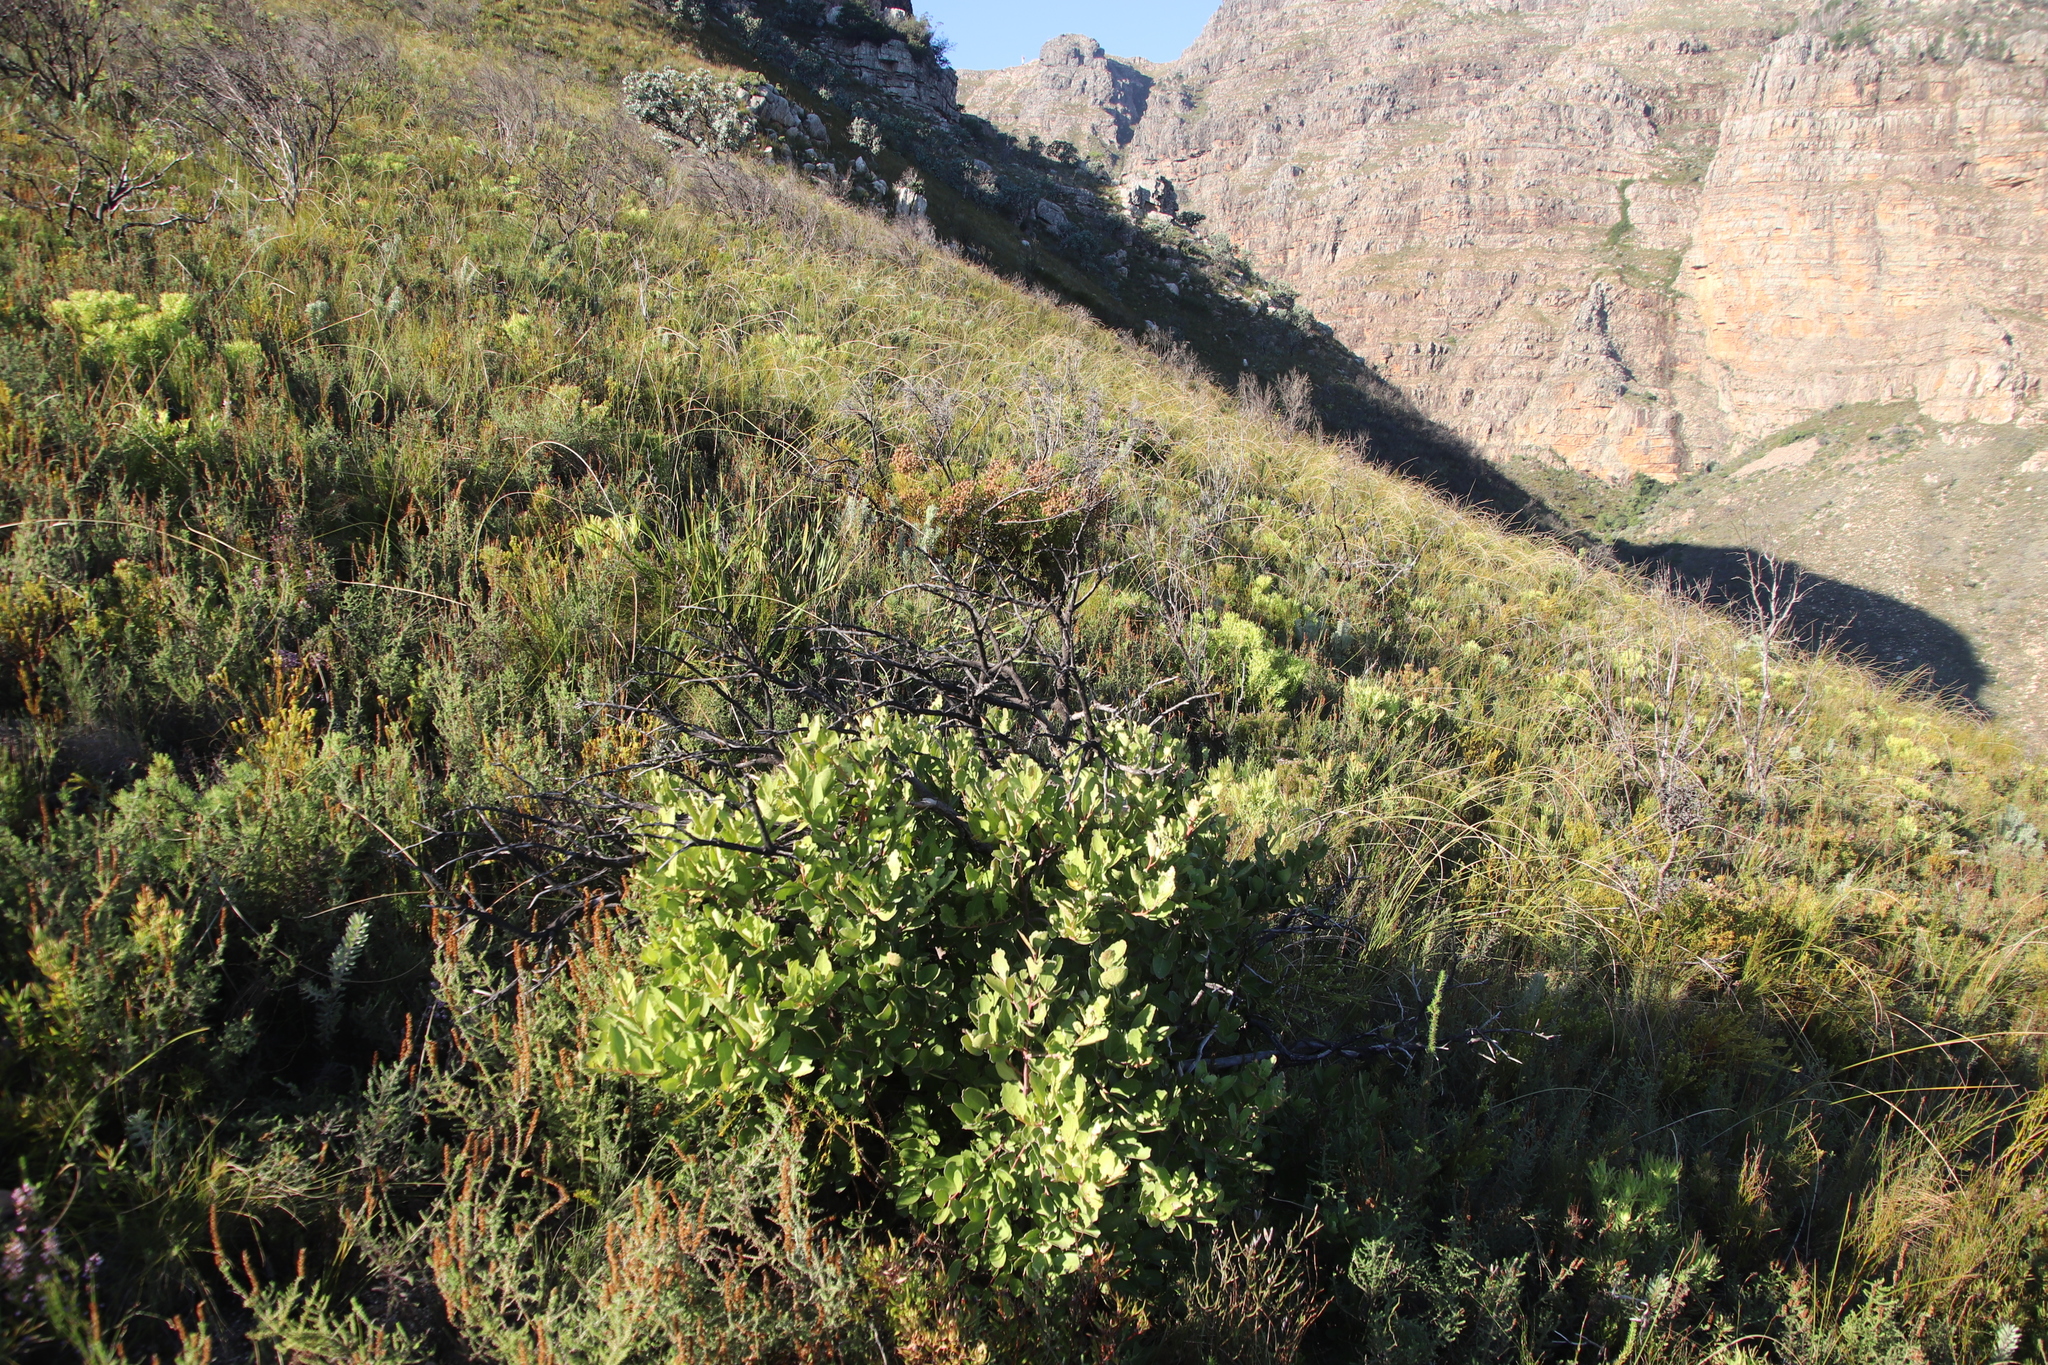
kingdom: Plantae
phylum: Tracheophyta
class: Magnoliopsida
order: Celastrales
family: Celastraceae
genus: Gymnosporia
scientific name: Gymnosporia laurina
